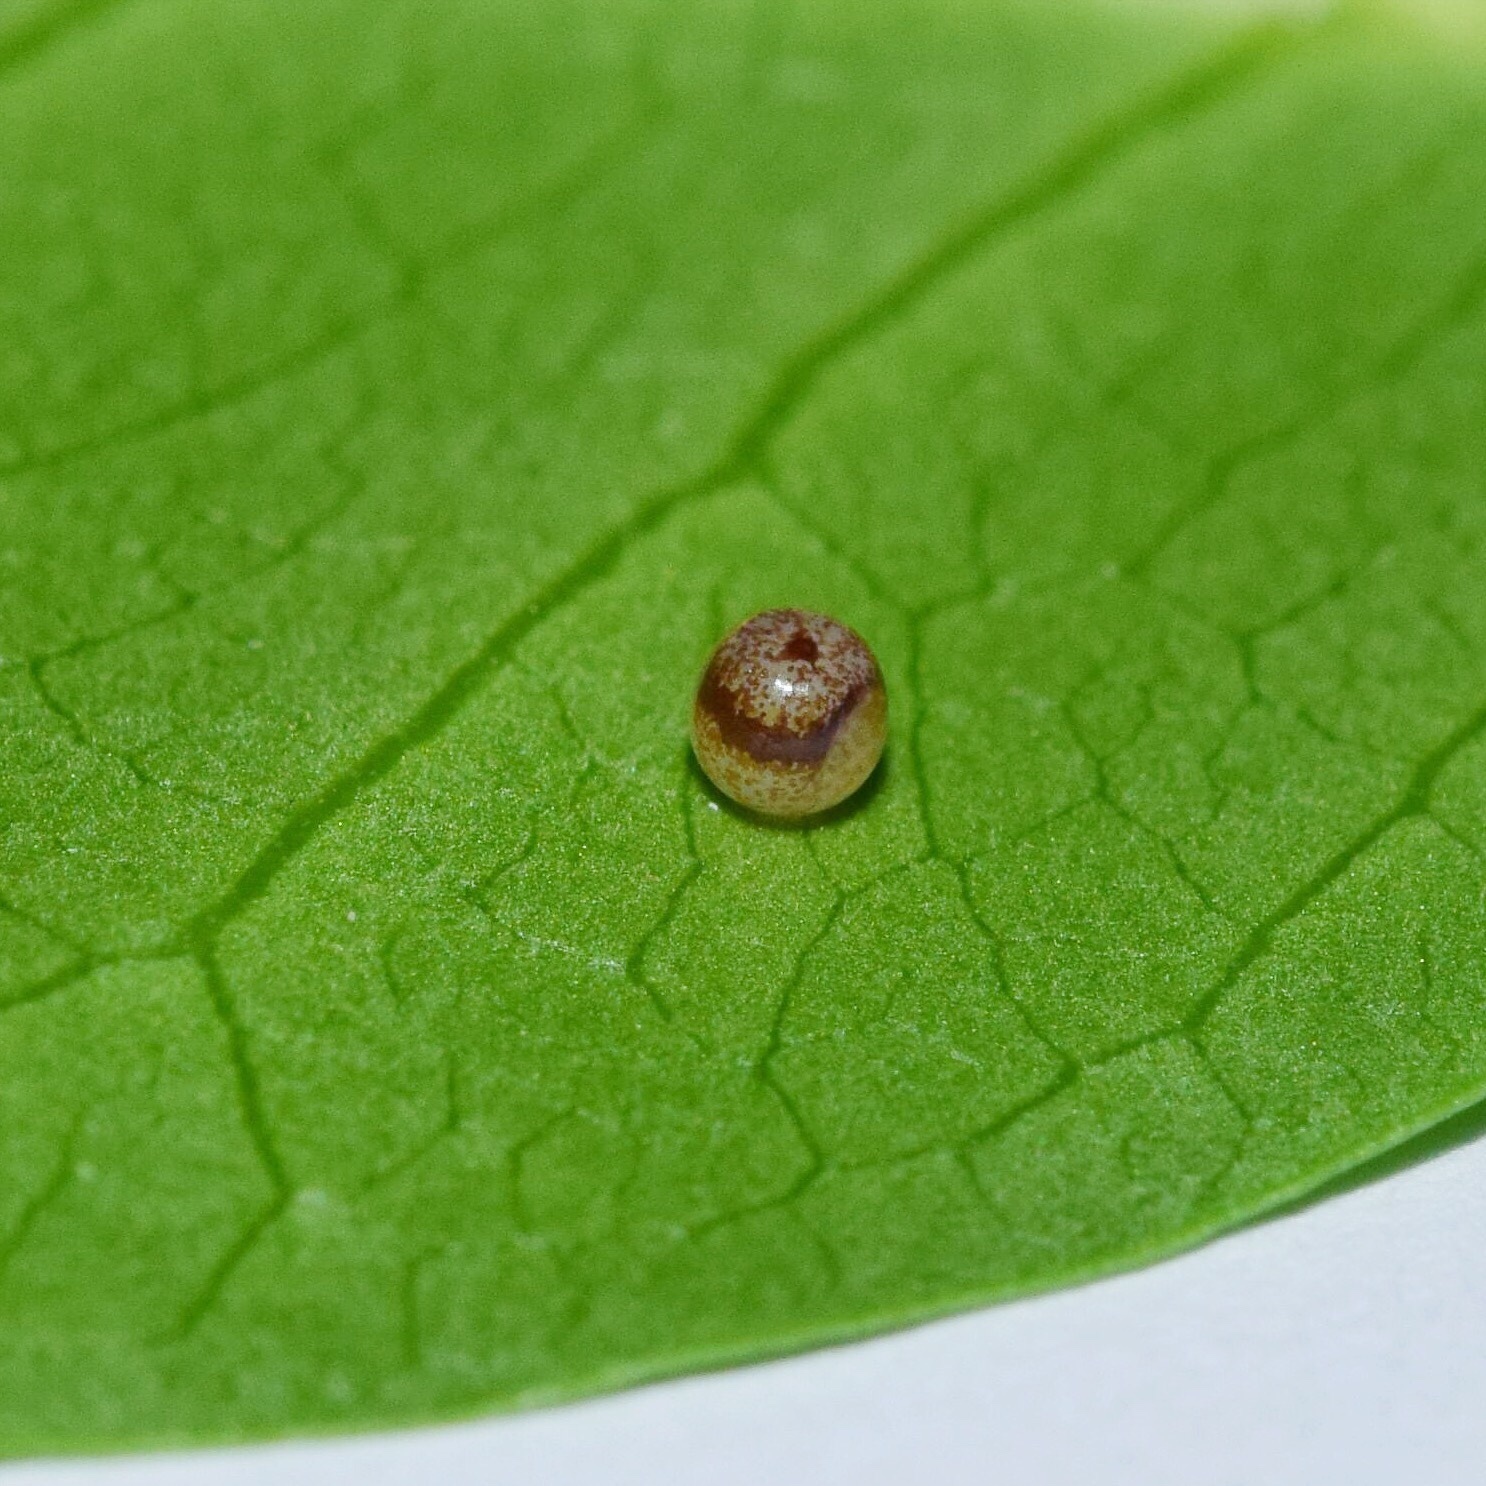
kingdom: Animalia
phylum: Arthropoda
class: Insecta
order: Lepidoptera
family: Nymphalidae
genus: Charaxes
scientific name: Charaxes brutus
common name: White-barred charaxes
